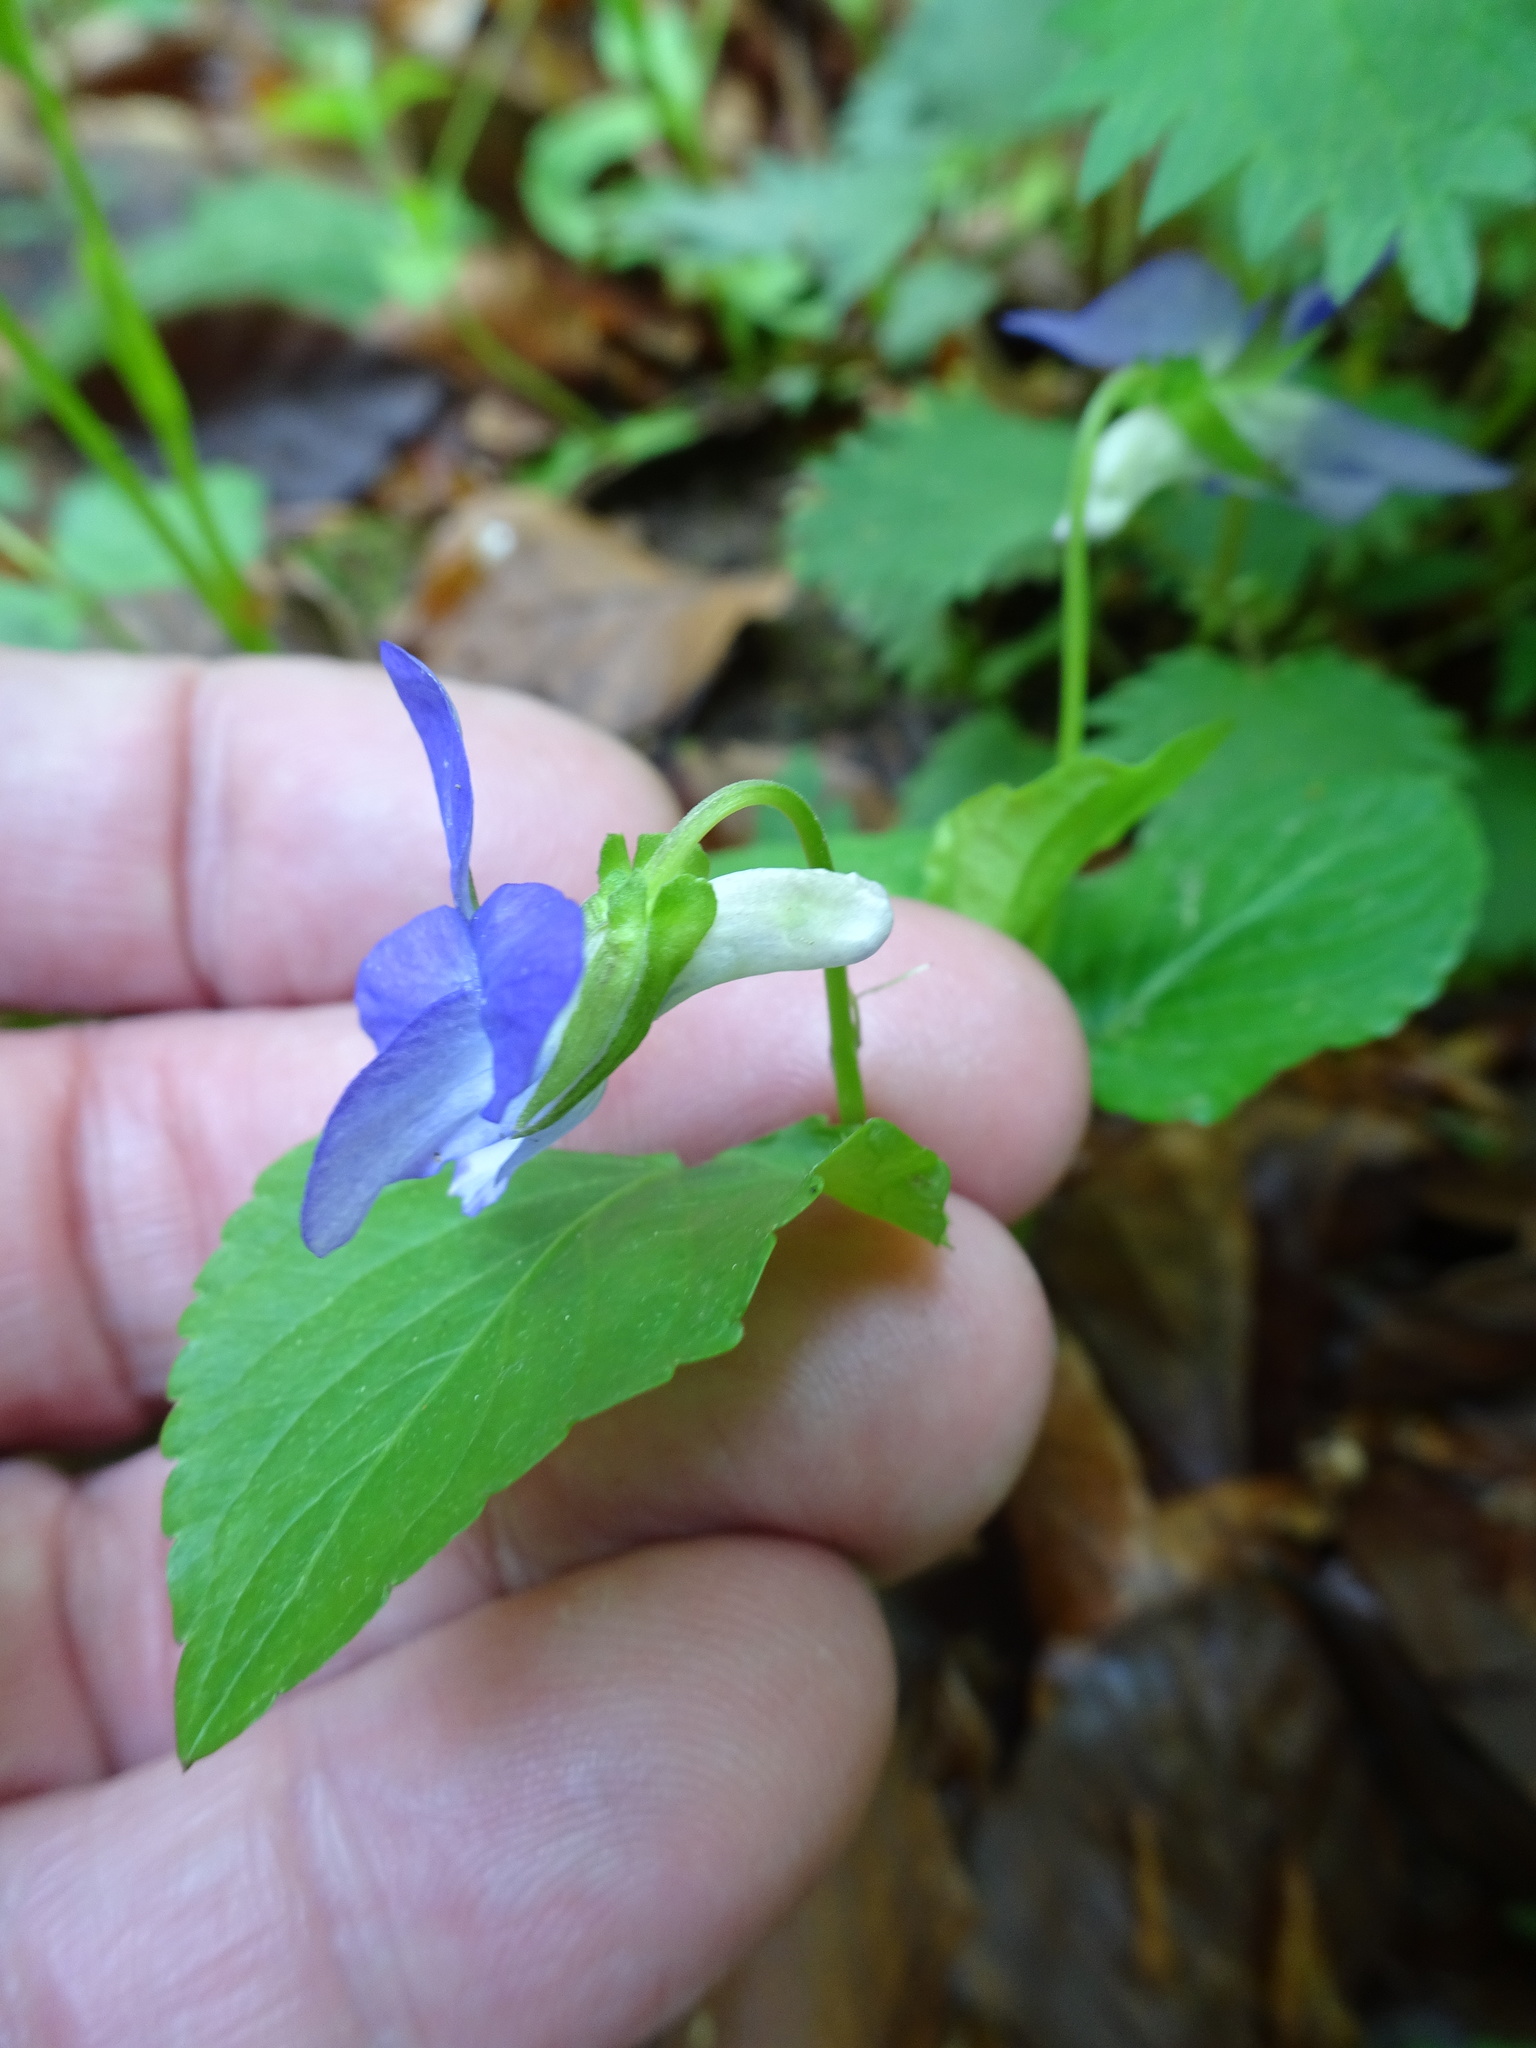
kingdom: Plantae
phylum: Tracheophyta
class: Magnoliopsida
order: Malpighiales
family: Violaceae
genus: Viola
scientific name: Viola riviniana
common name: Common dog-violet
